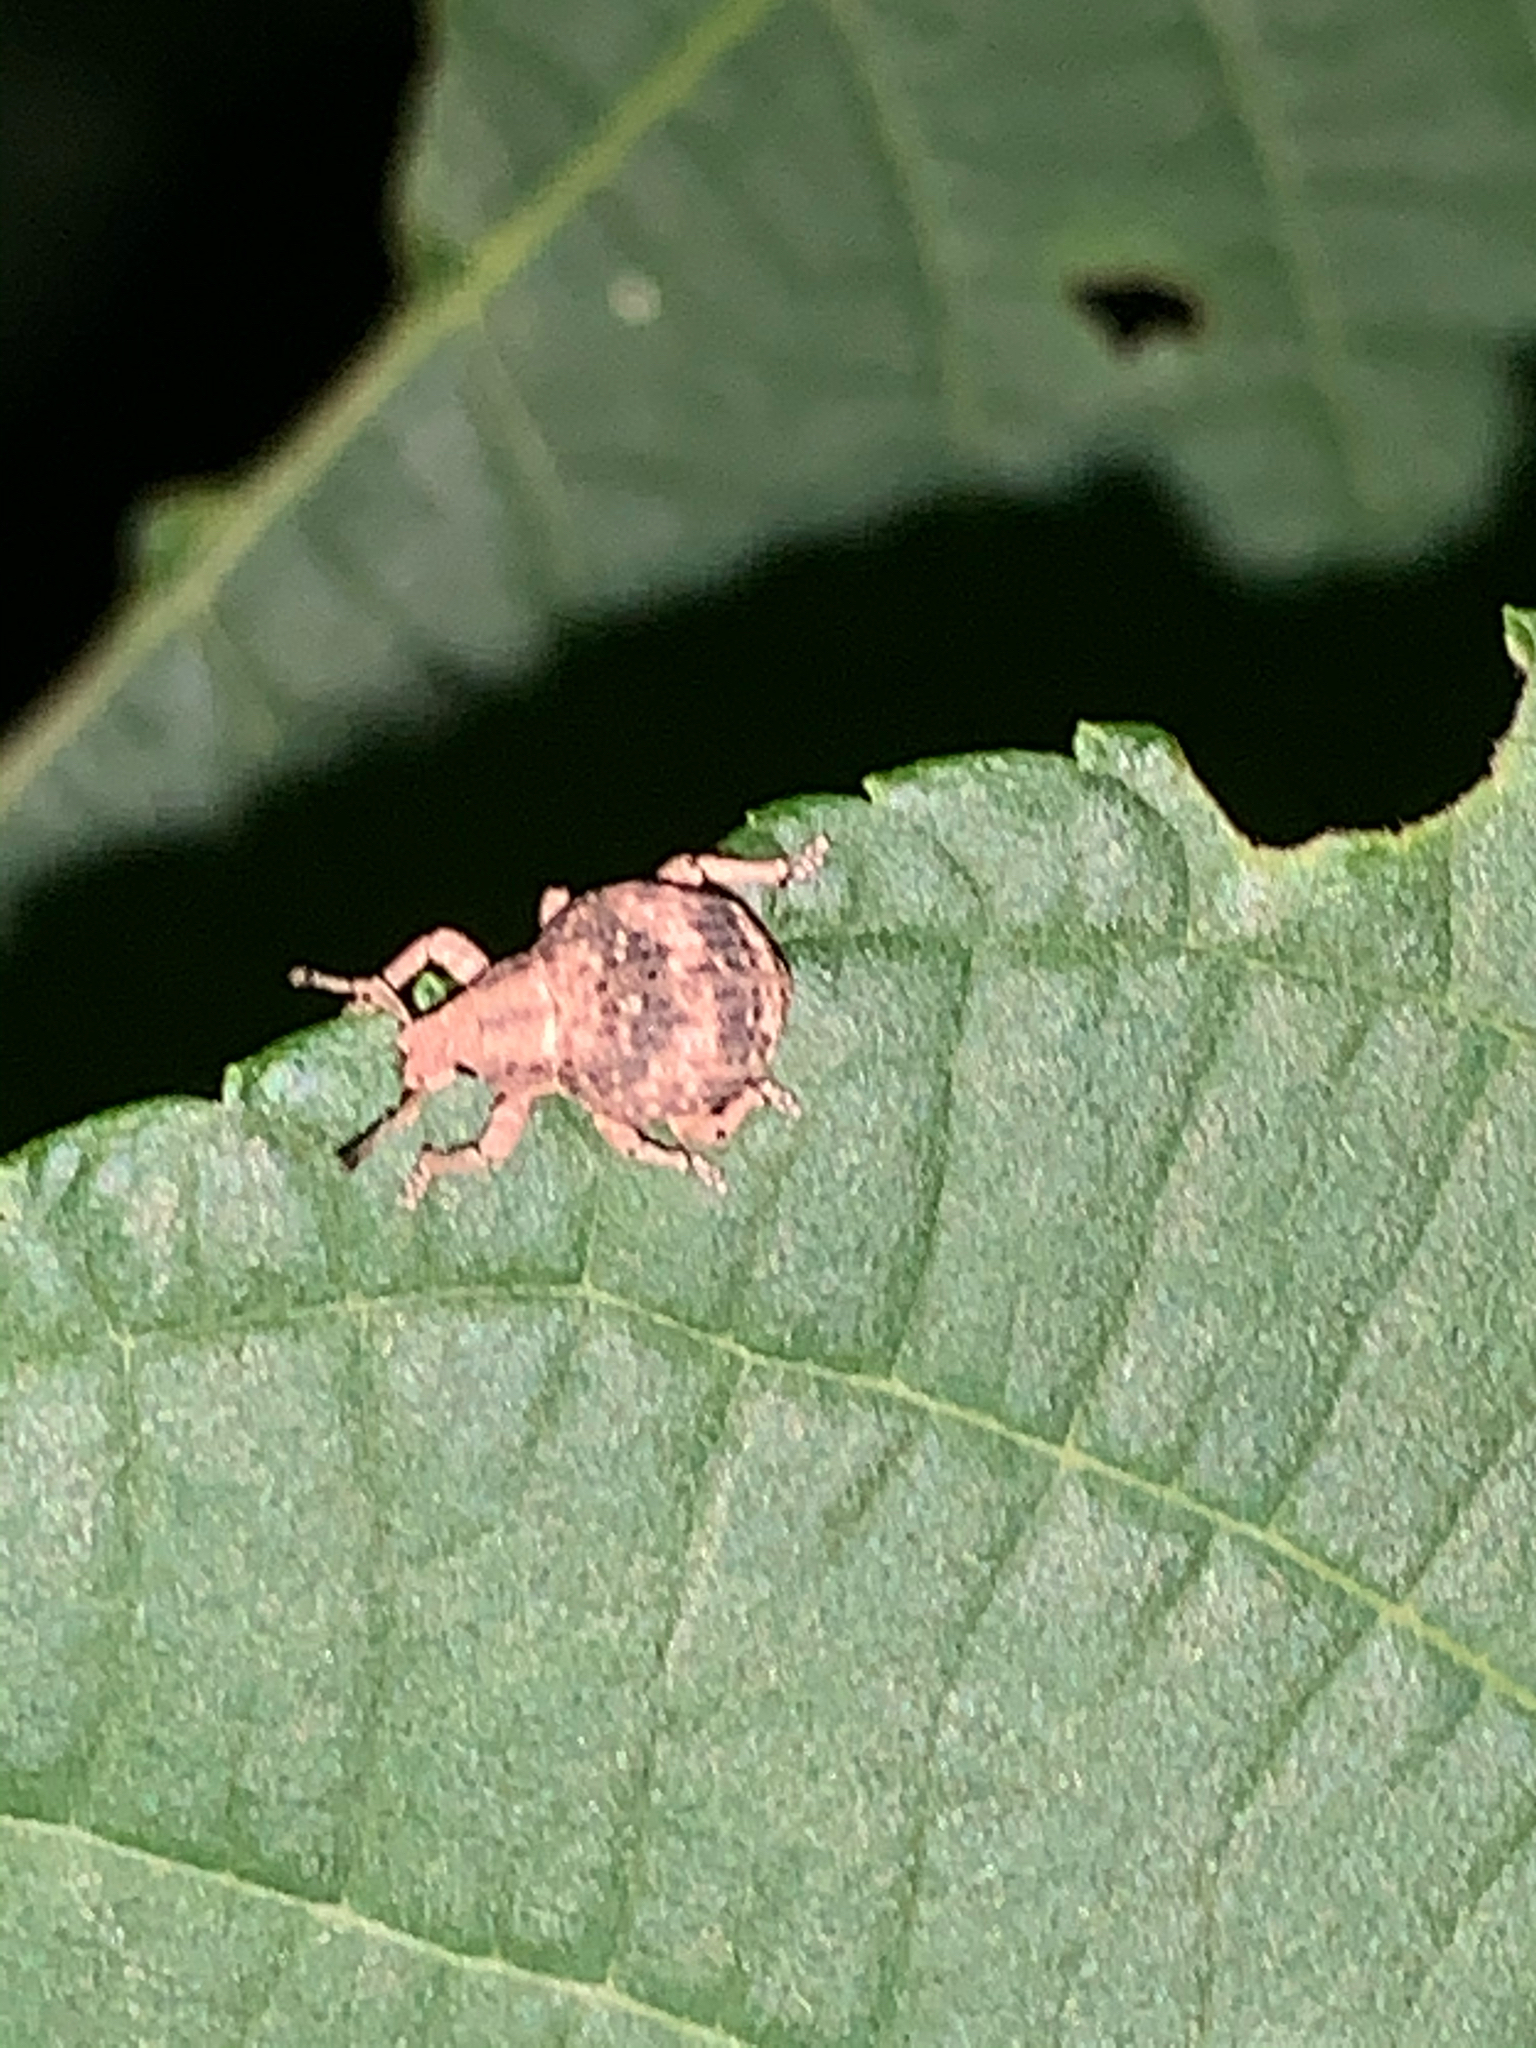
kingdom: Animalia
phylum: Arthropoda
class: Insecta
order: Coleoptera
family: Curculionidae
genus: Pseudocneorhinus
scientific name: Pseudocneorhinus bifasciatus
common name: Two-banded japanese weevil
